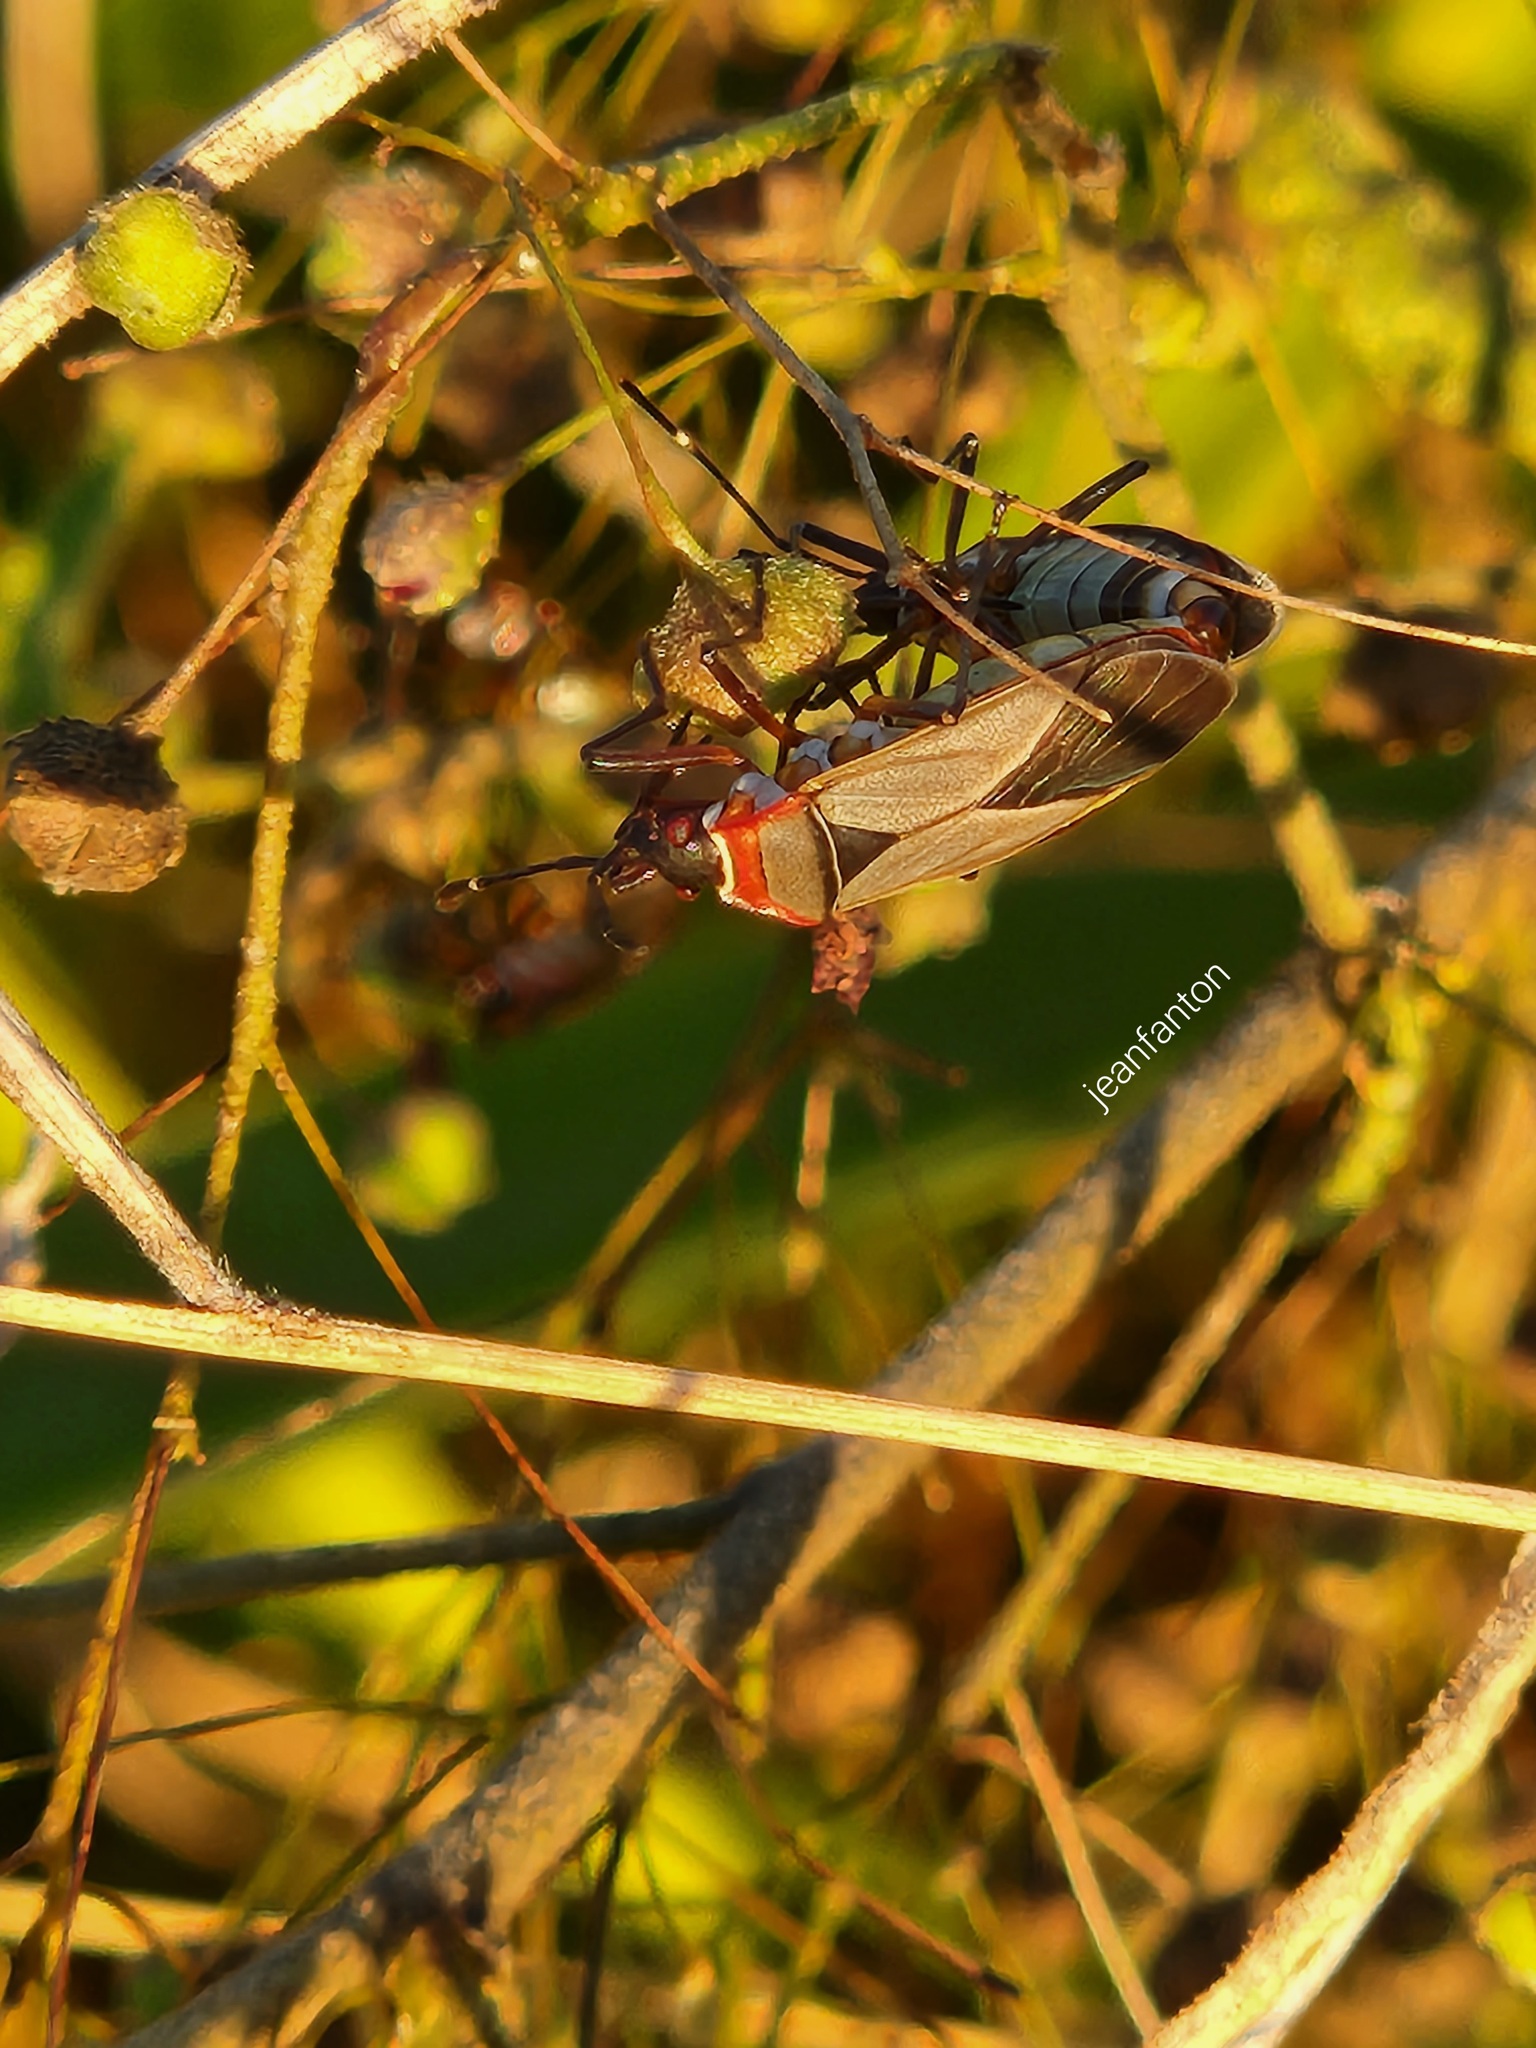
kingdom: Animalia
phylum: Arthropoda
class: Insecta
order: Hemiptera
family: Pyrrhocoridae
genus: Dysdercus
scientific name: Dysdercus ruficollis
